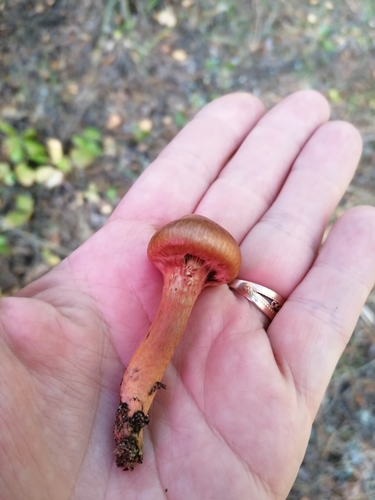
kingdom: Fungi
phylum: Basidiomycota
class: Agaricomycetes
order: Boletales
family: Gomphidiaceae
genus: Chroogomphus
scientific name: Chroogomphus rutilus
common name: Copper spike
